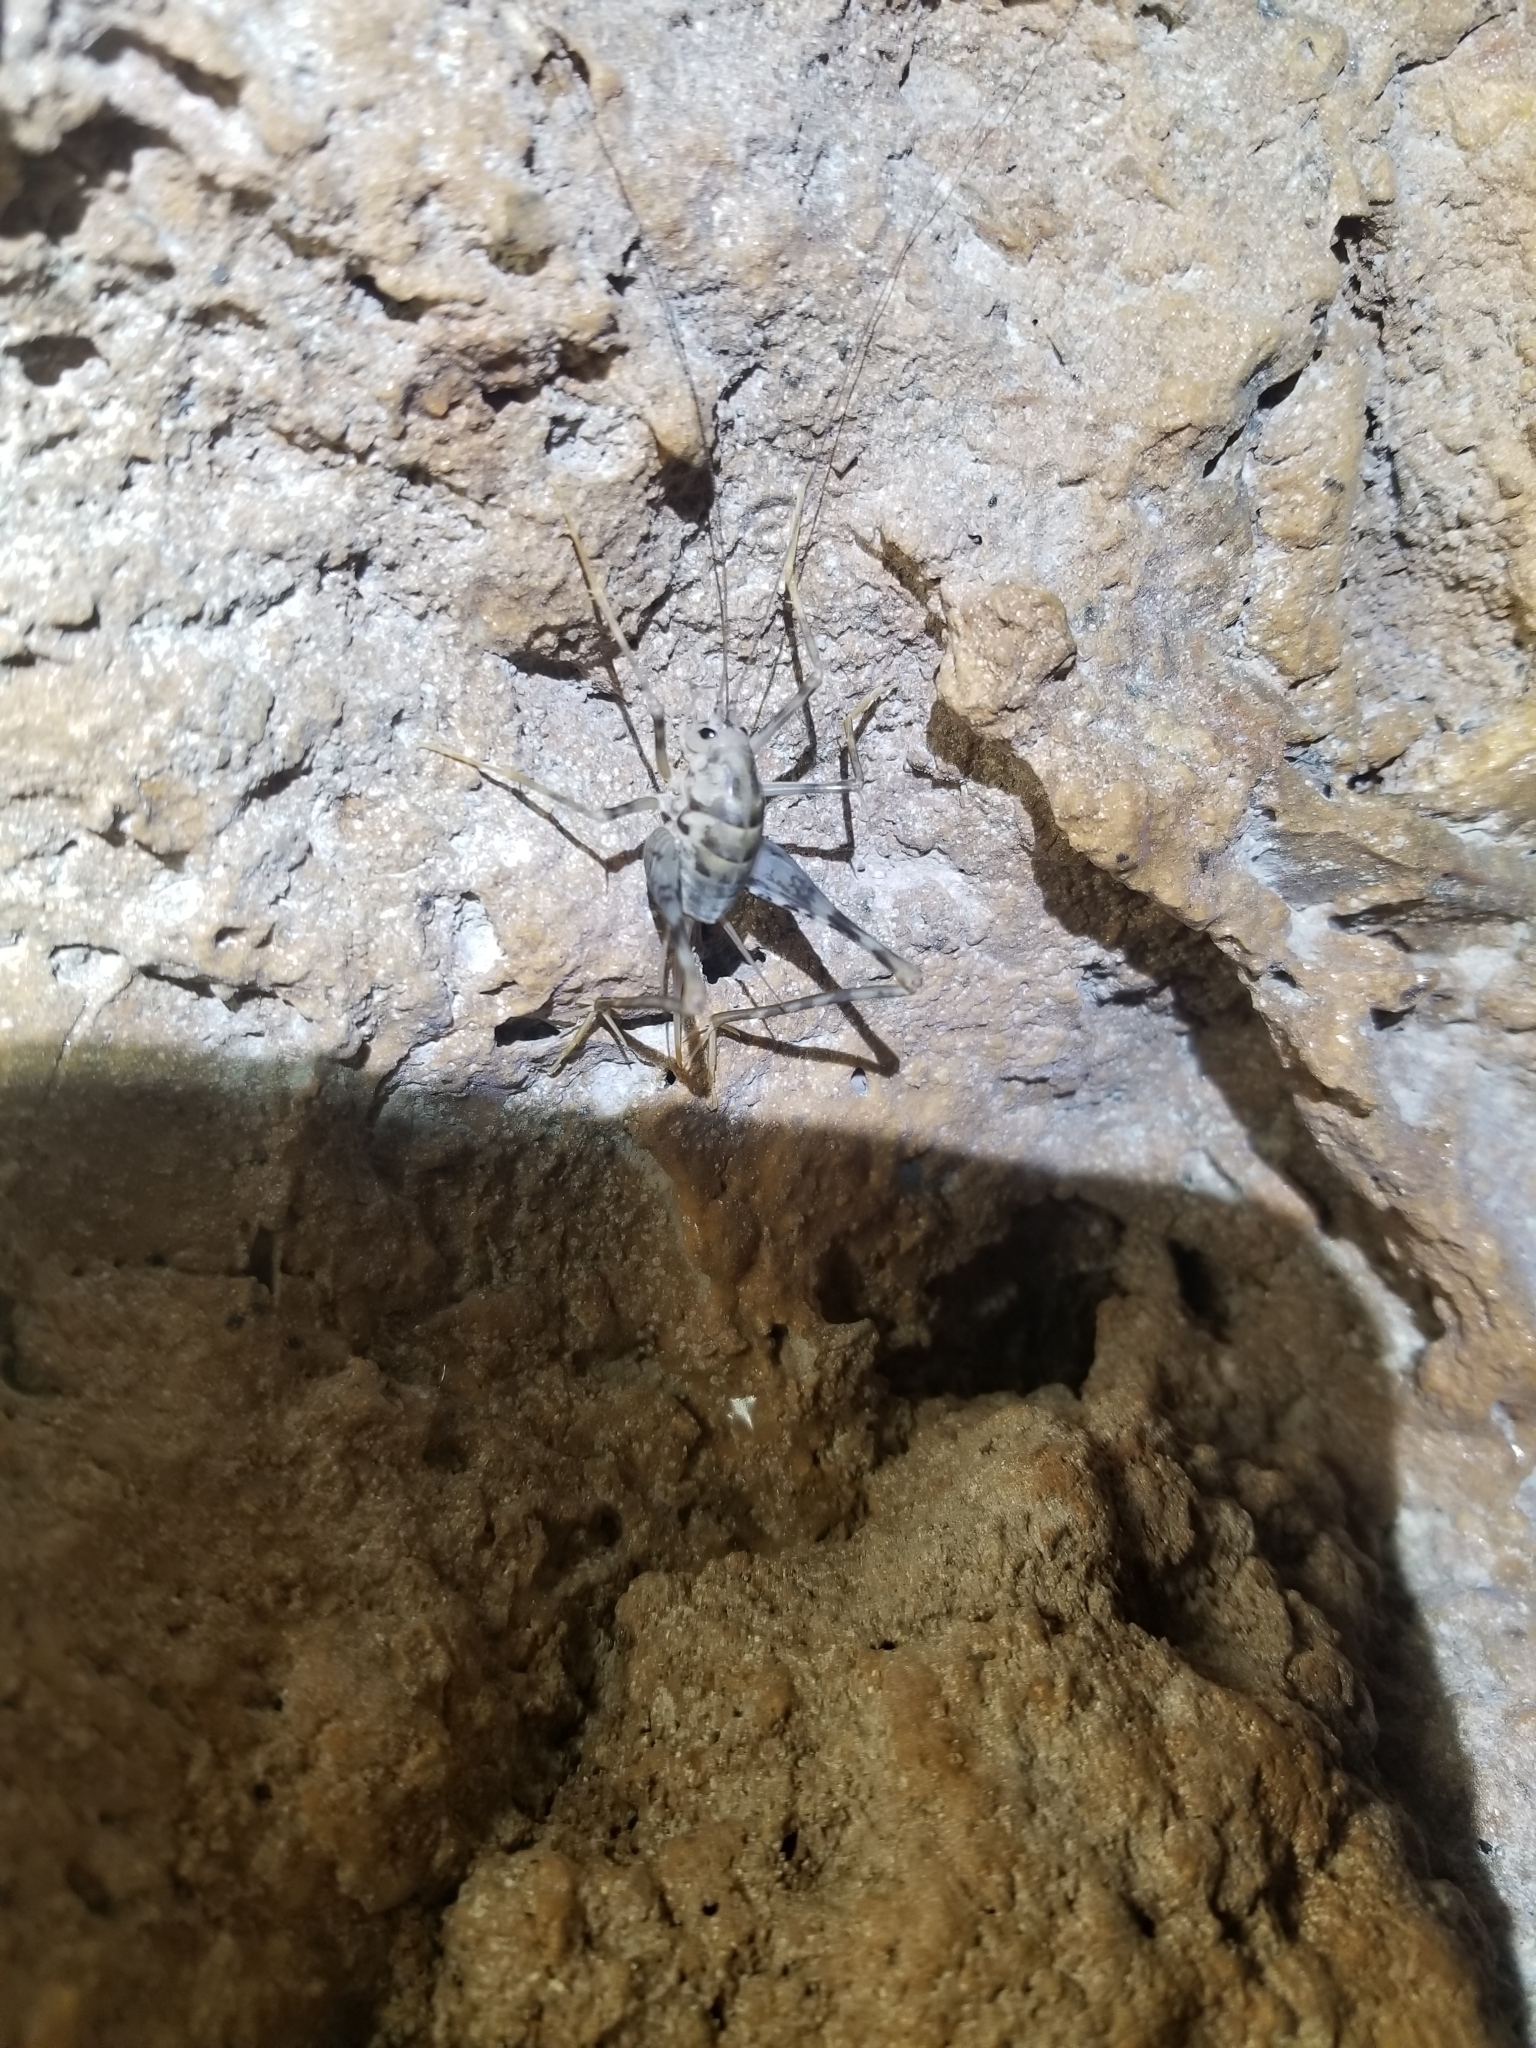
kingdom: Animalia
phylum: Arthropoda
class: Insecta
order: Orthoptera
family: Rhaphidophoridae
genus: Tachycines
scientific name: Tachycines asynamorus
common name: Greenhouse camel cricket
